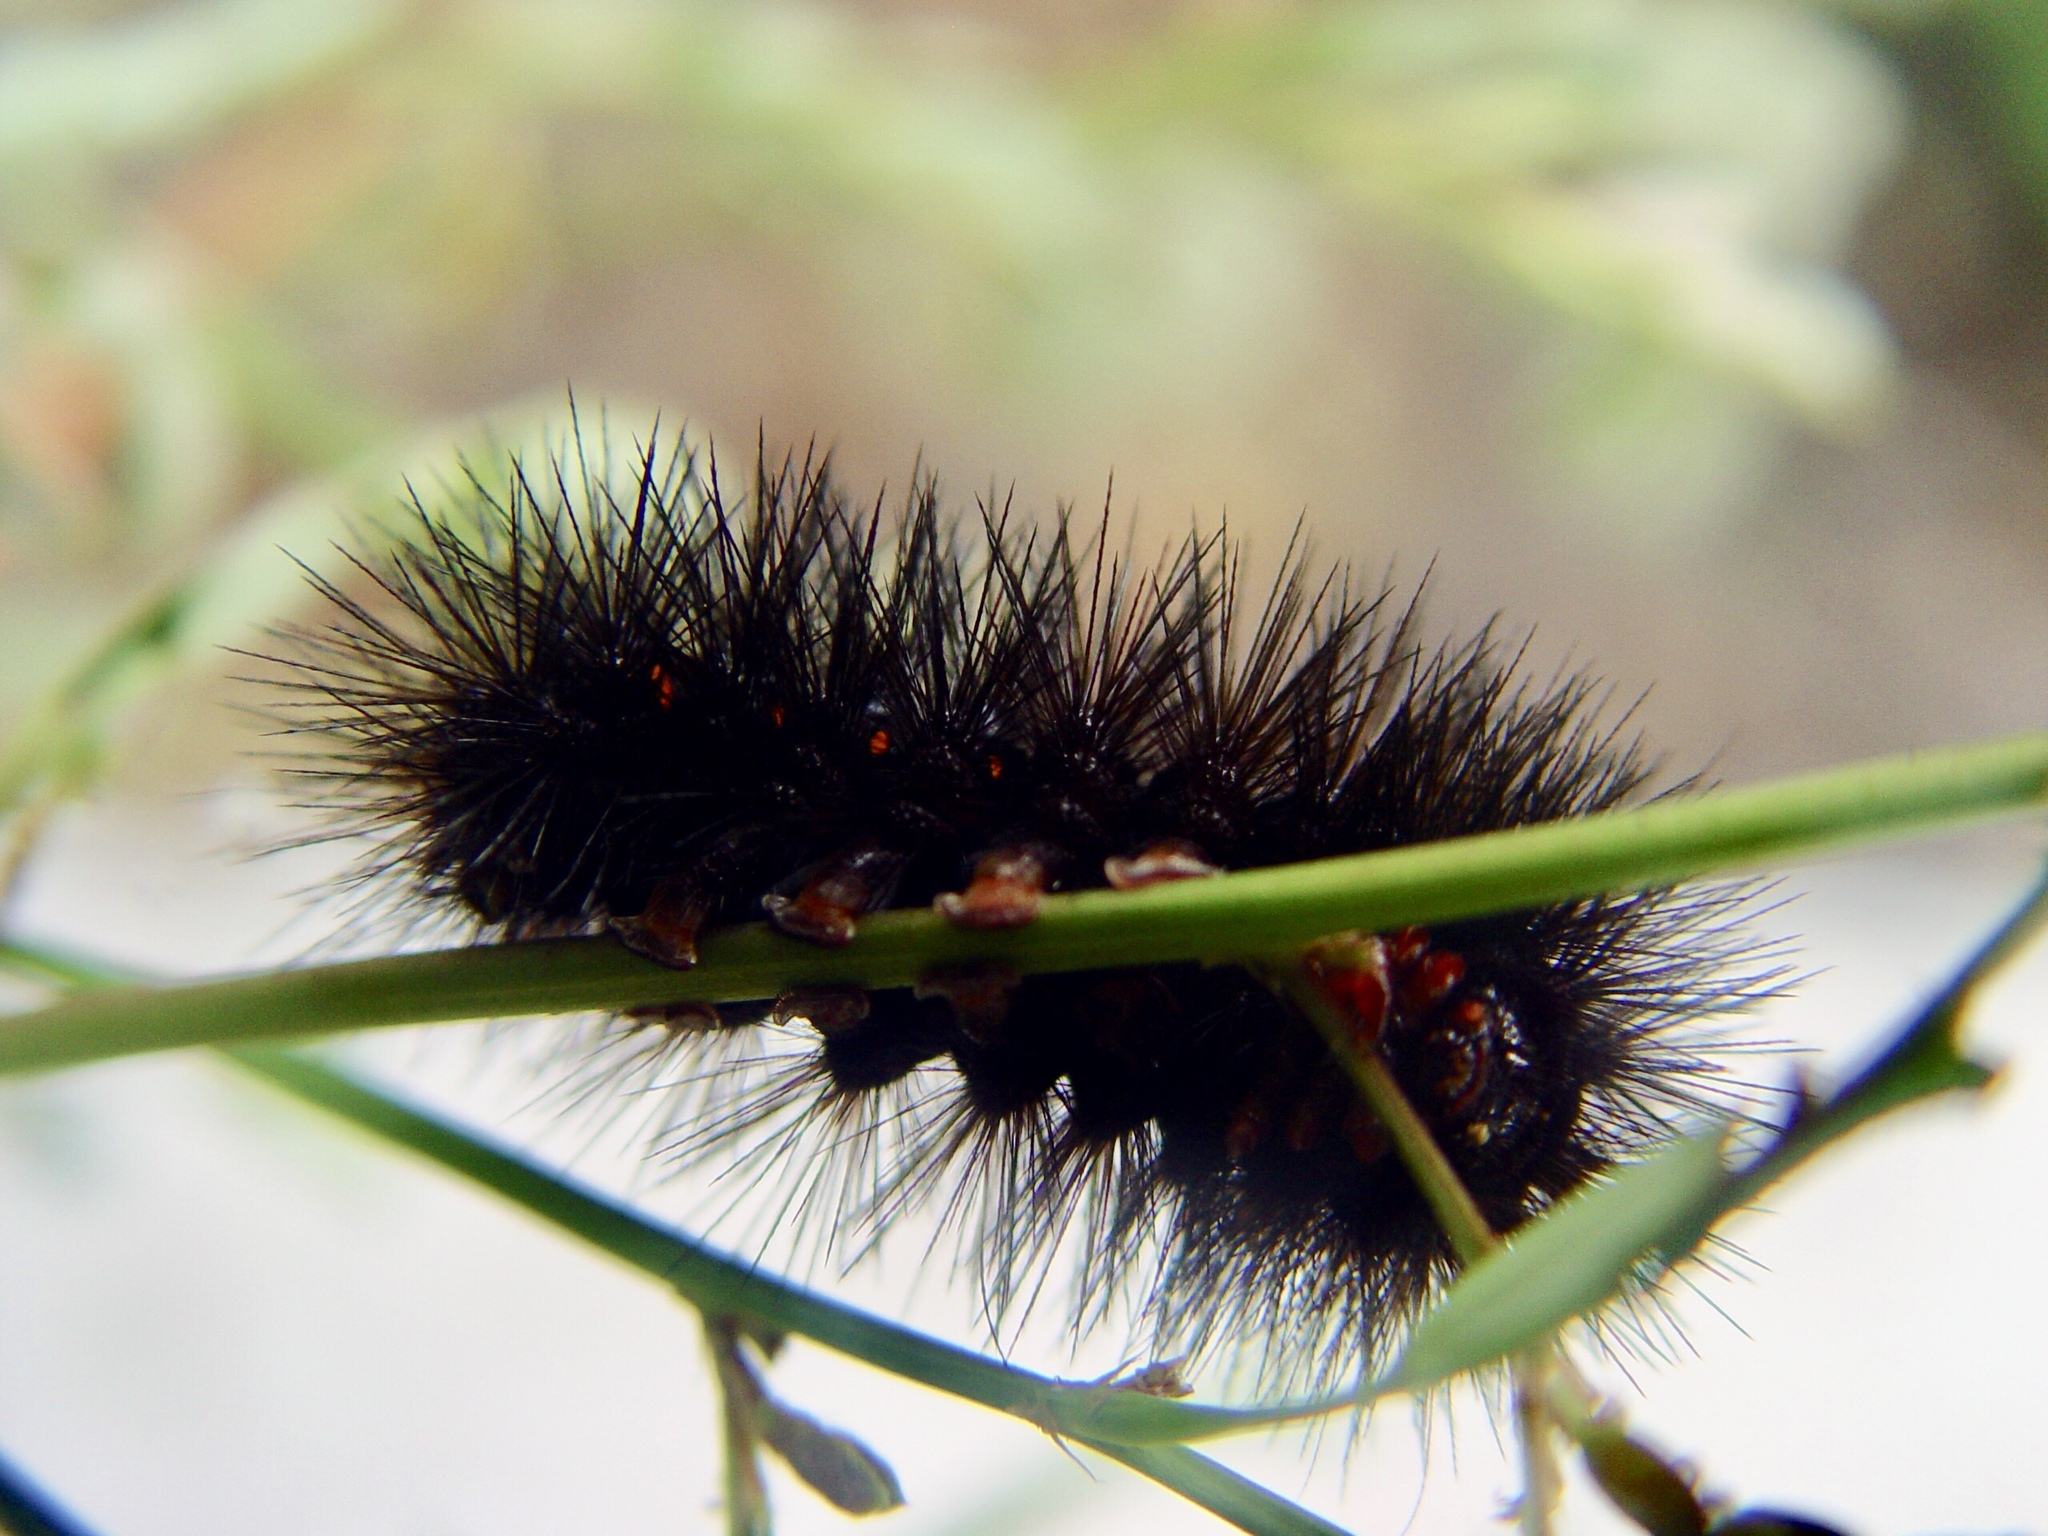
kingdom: Animalia
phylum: Arthropoda
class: Insecta
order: Lepidoptera
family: Erebidae
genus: Hypercompe
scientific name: Hypercompe scribonia
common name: Giant leopard moth
